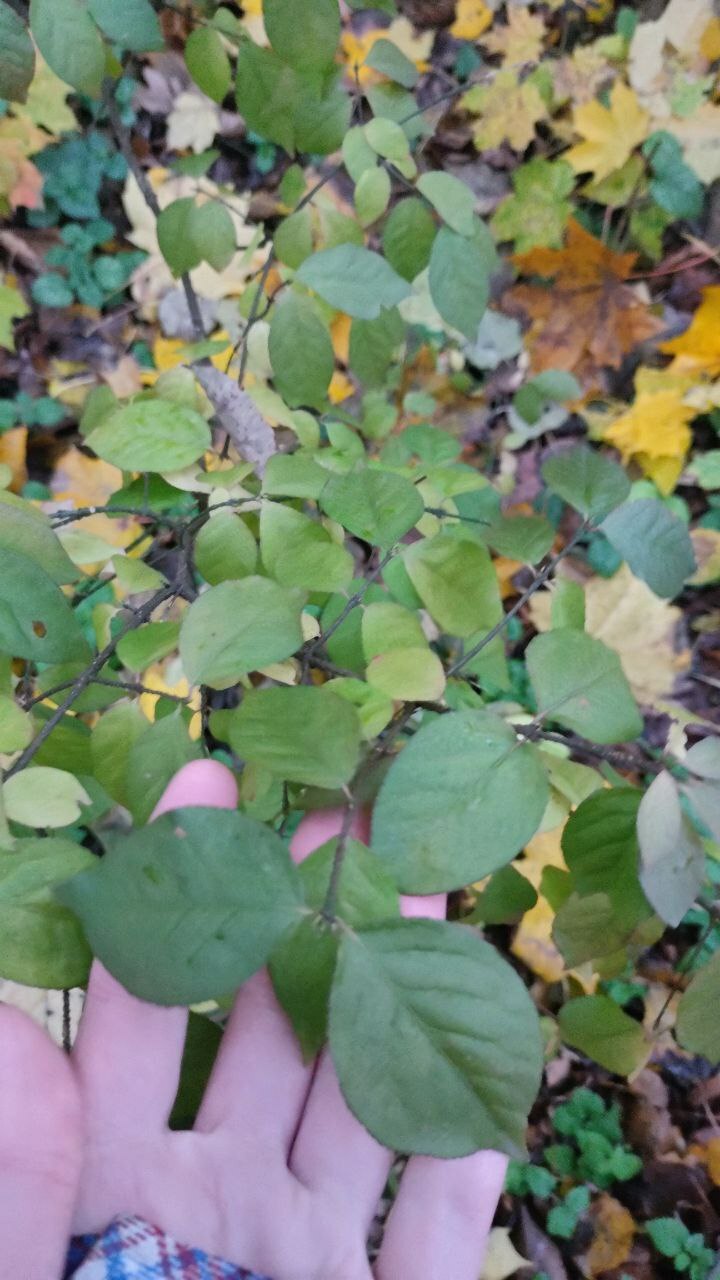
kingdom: Plantae
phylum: Tracheophyta
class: Magnoliopsida
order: Celastrales
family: Celastraceae
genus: Euonymus
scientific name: Euonymus verrucosus
